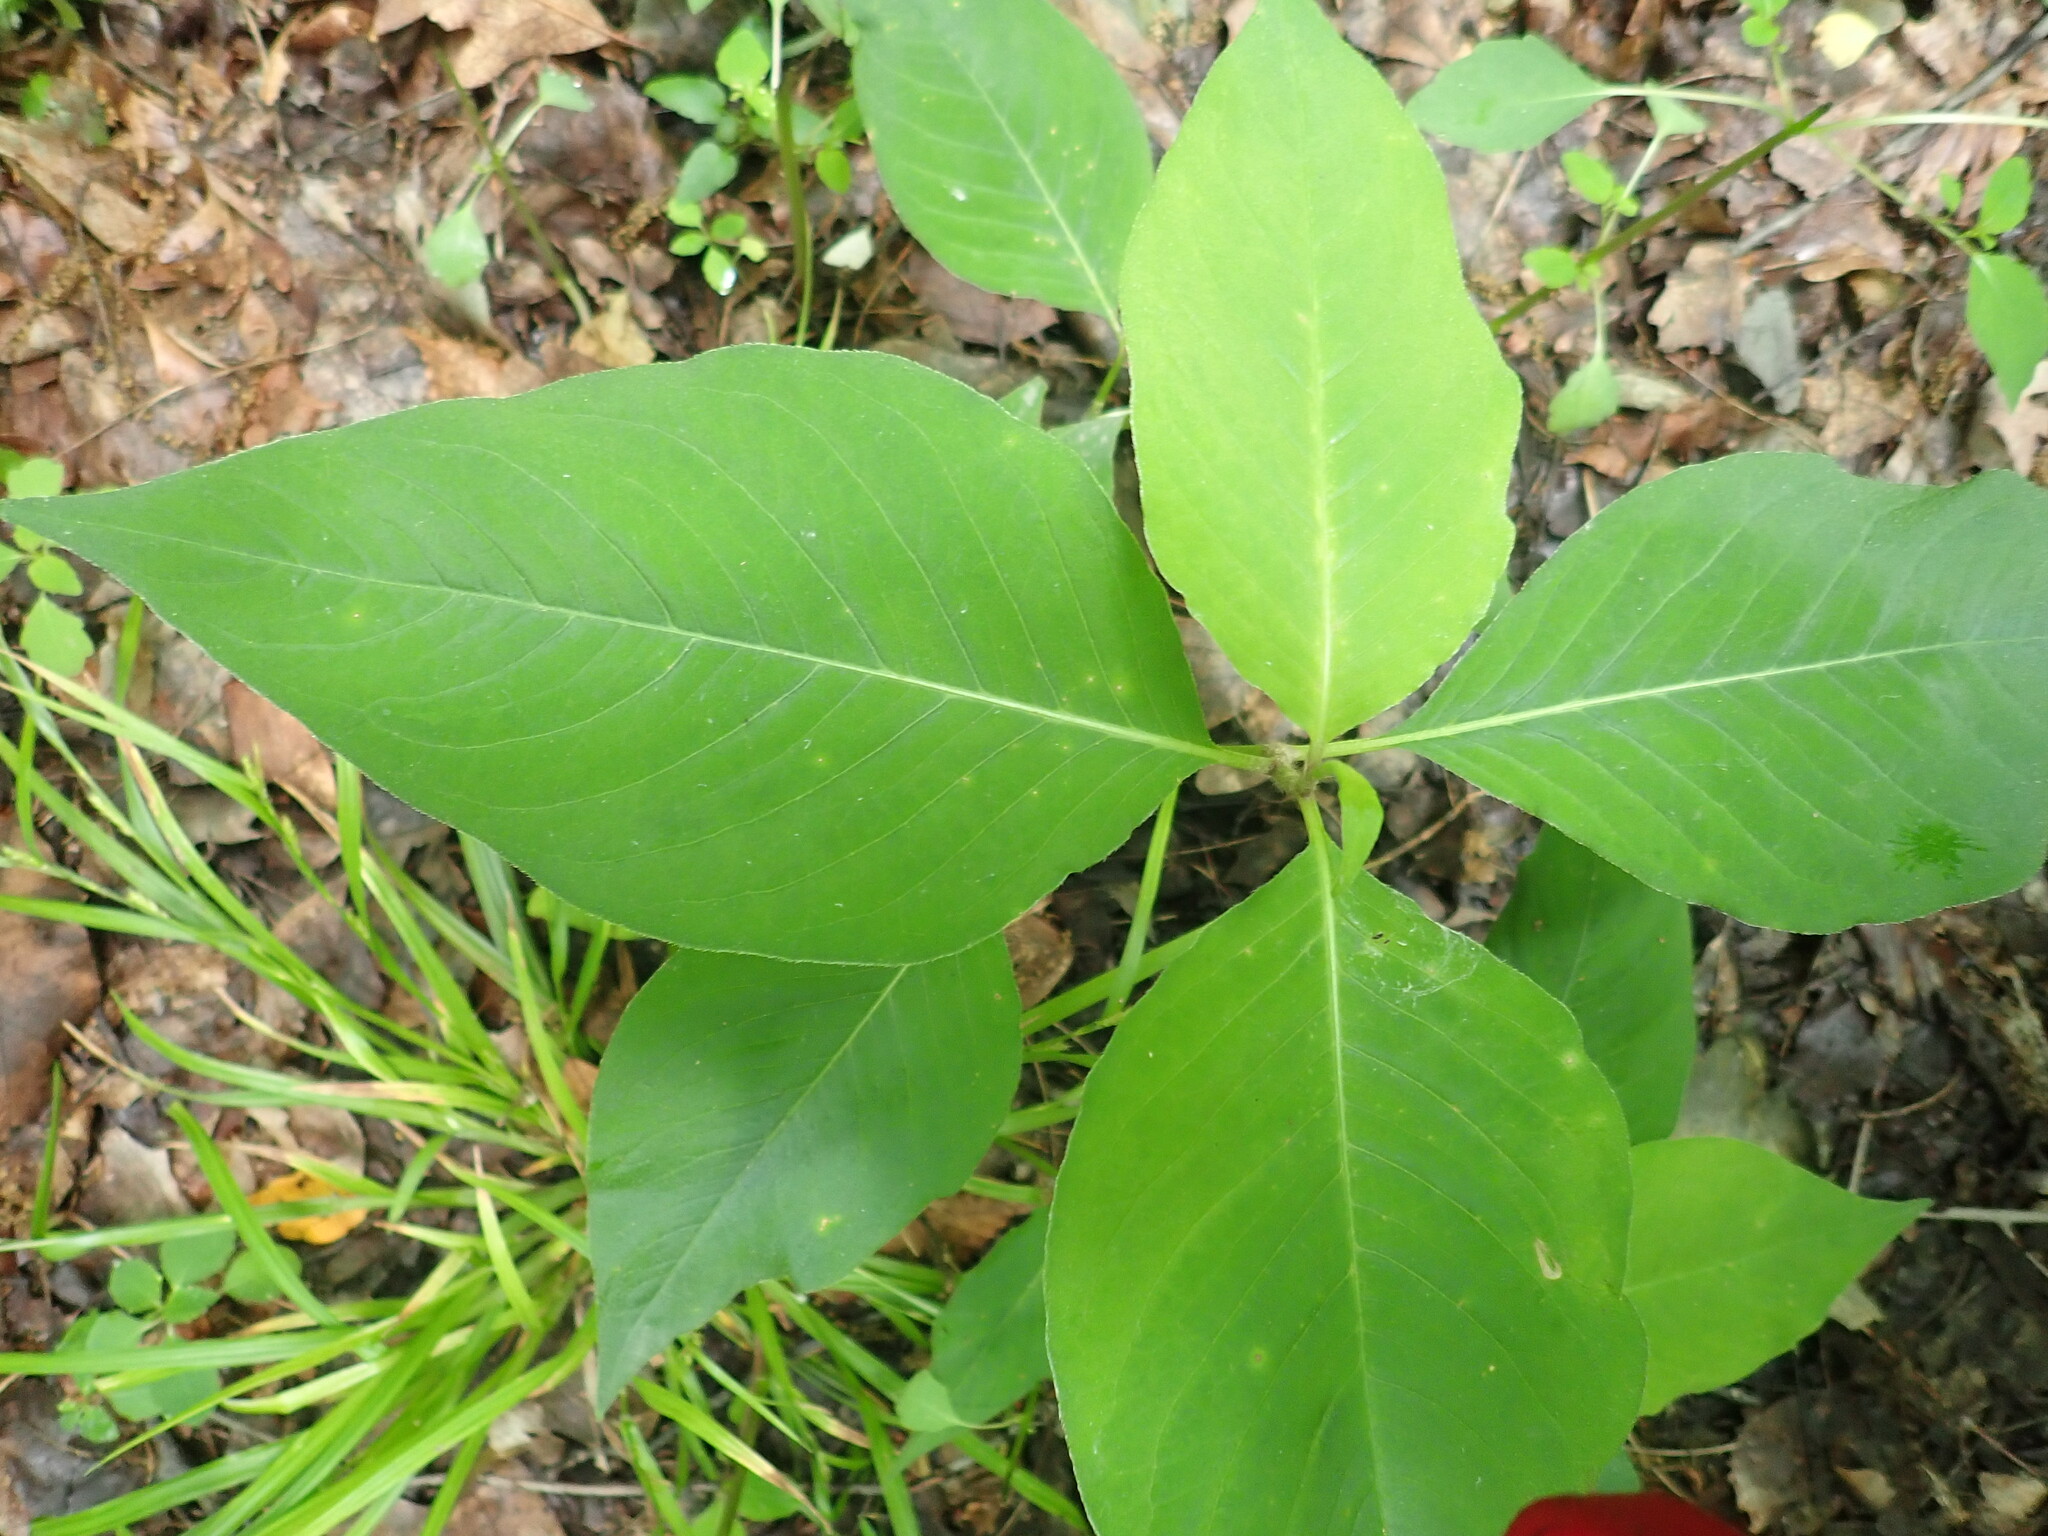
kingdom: Plantae
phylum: Tracheophyta
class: Magnoliopsida
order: Caryophyllales
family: Polygonaceae
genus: Persicaria
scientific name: Persicaria virginiana
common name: Jumpseed
